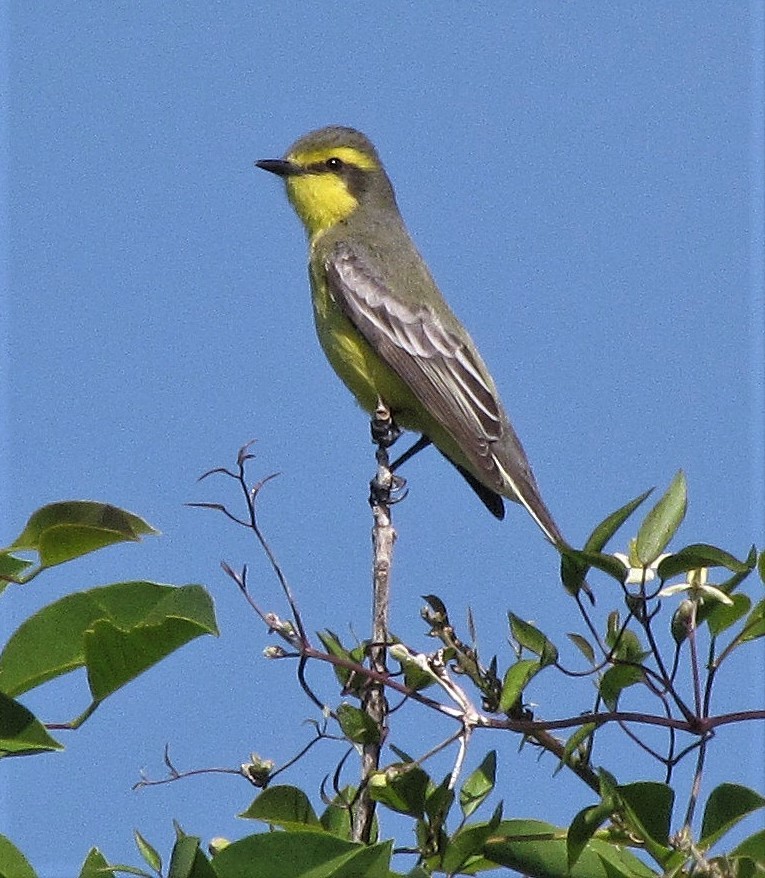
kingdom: Animalia
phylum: Chordata
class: Aves
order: Passeriformes
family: Tyrannidae
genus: Satrapa
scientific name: Satrapa icterophrys
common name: Yellow-browed tyrant
